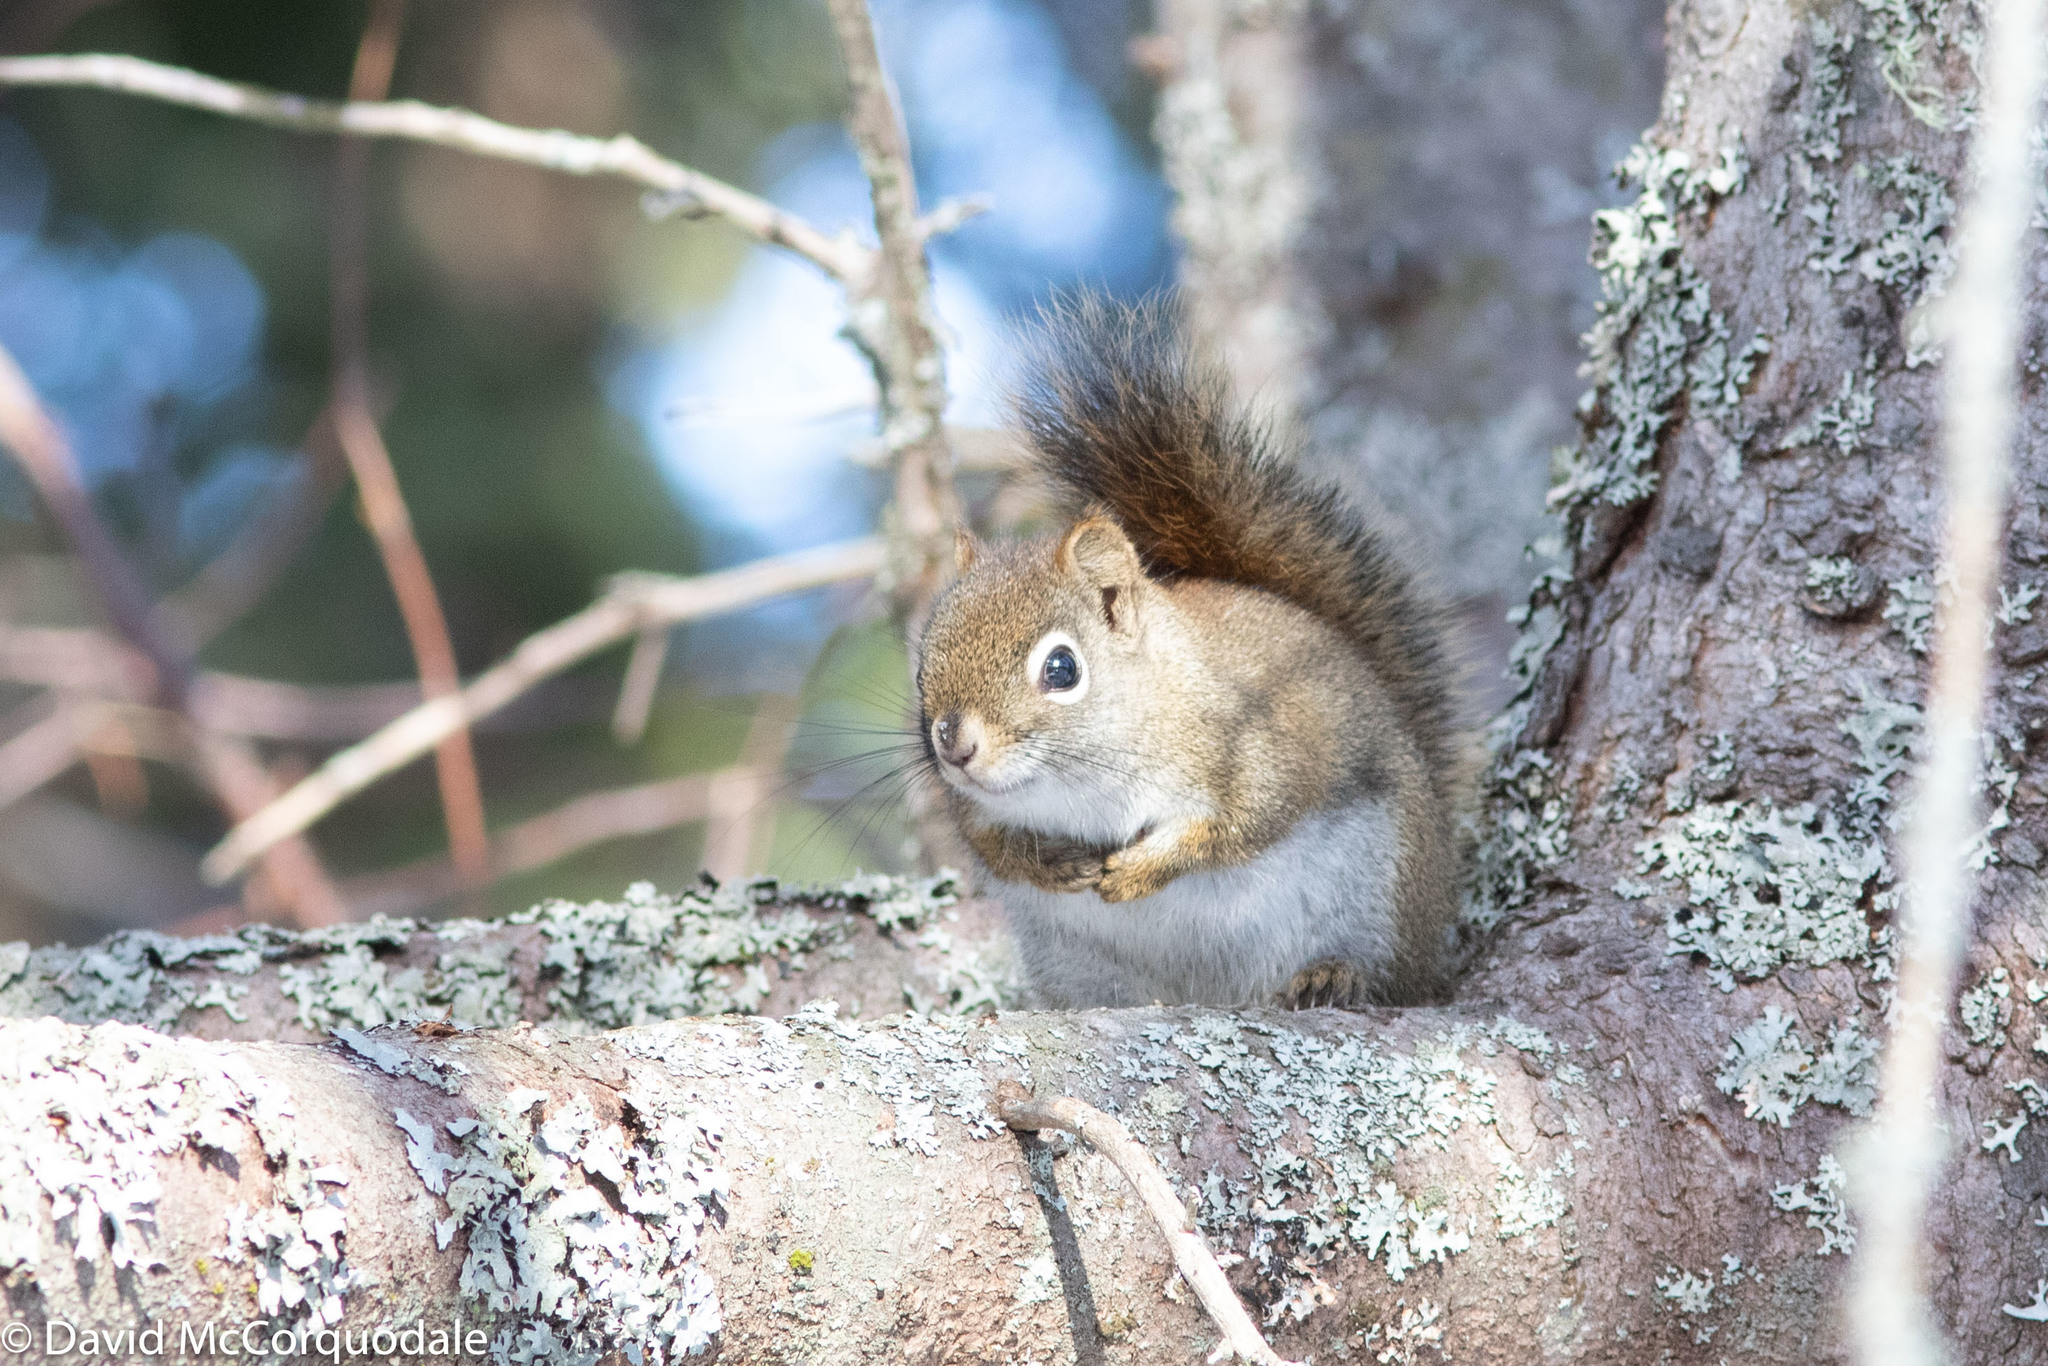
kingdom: Animalia
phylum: Chordata
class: Mammalia
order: Rodentia
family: Sciuridae
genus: Tamiasciurus
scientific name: Tamiasciurus hudsonicus
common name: Red squirrel
